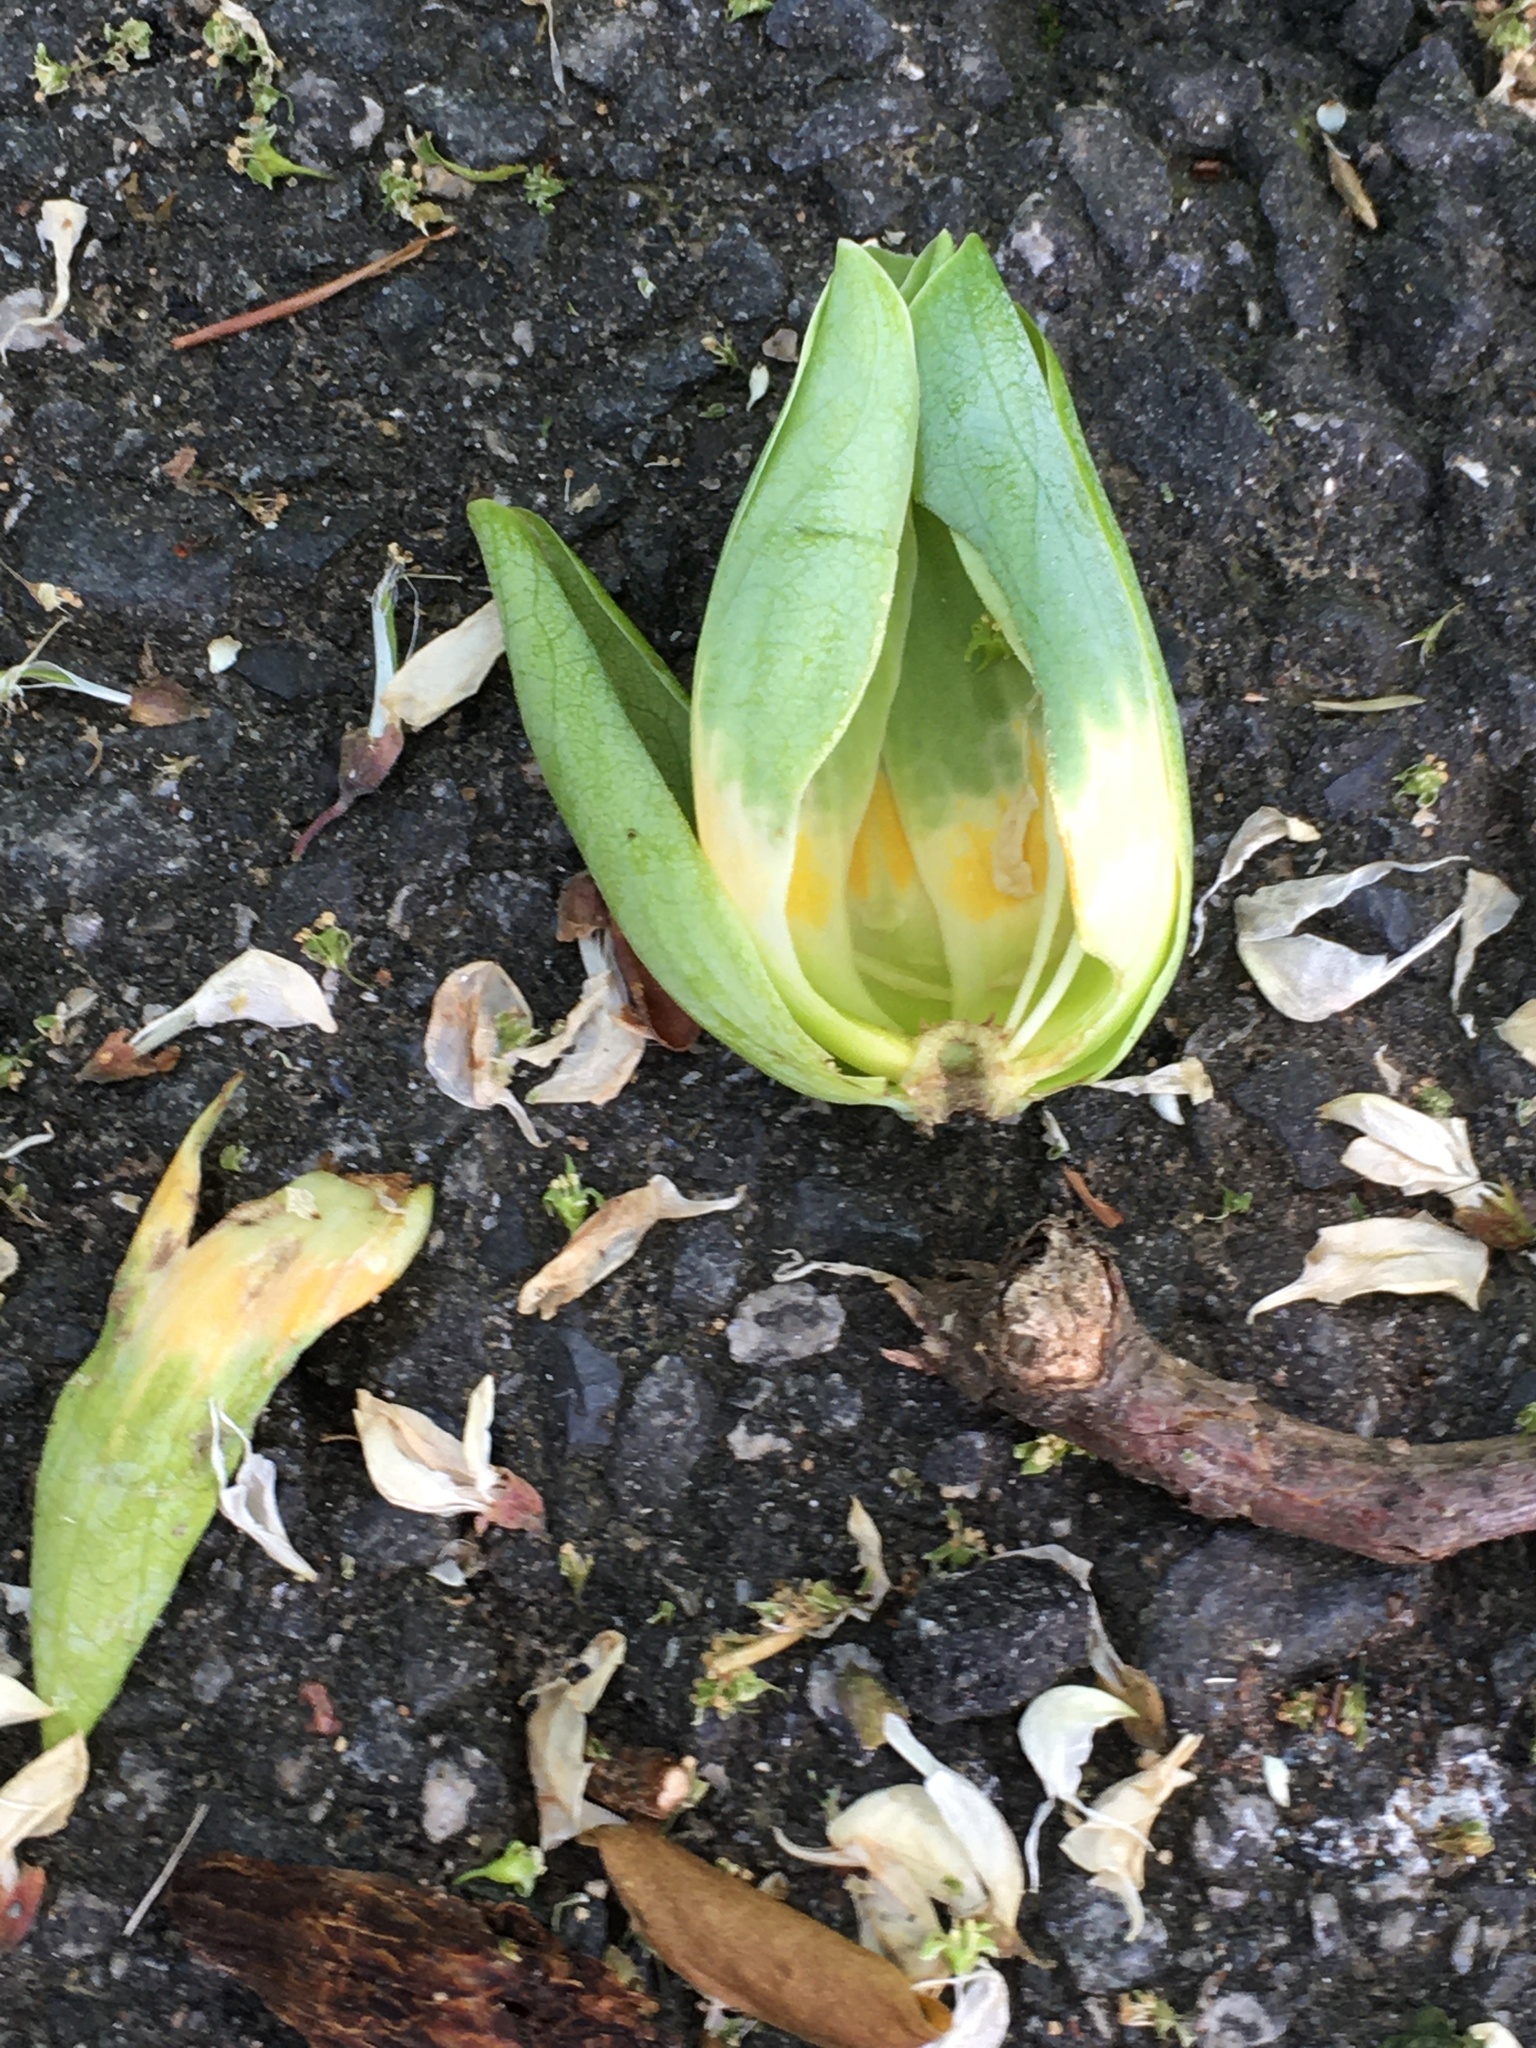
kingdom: Plantae
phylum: Tracheophyta
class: Magnoliopsida
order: Magnoliales
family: Magnoliaceae
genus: Liriodendron
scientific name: Liriodendron tulipifera
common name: Tulip tree
